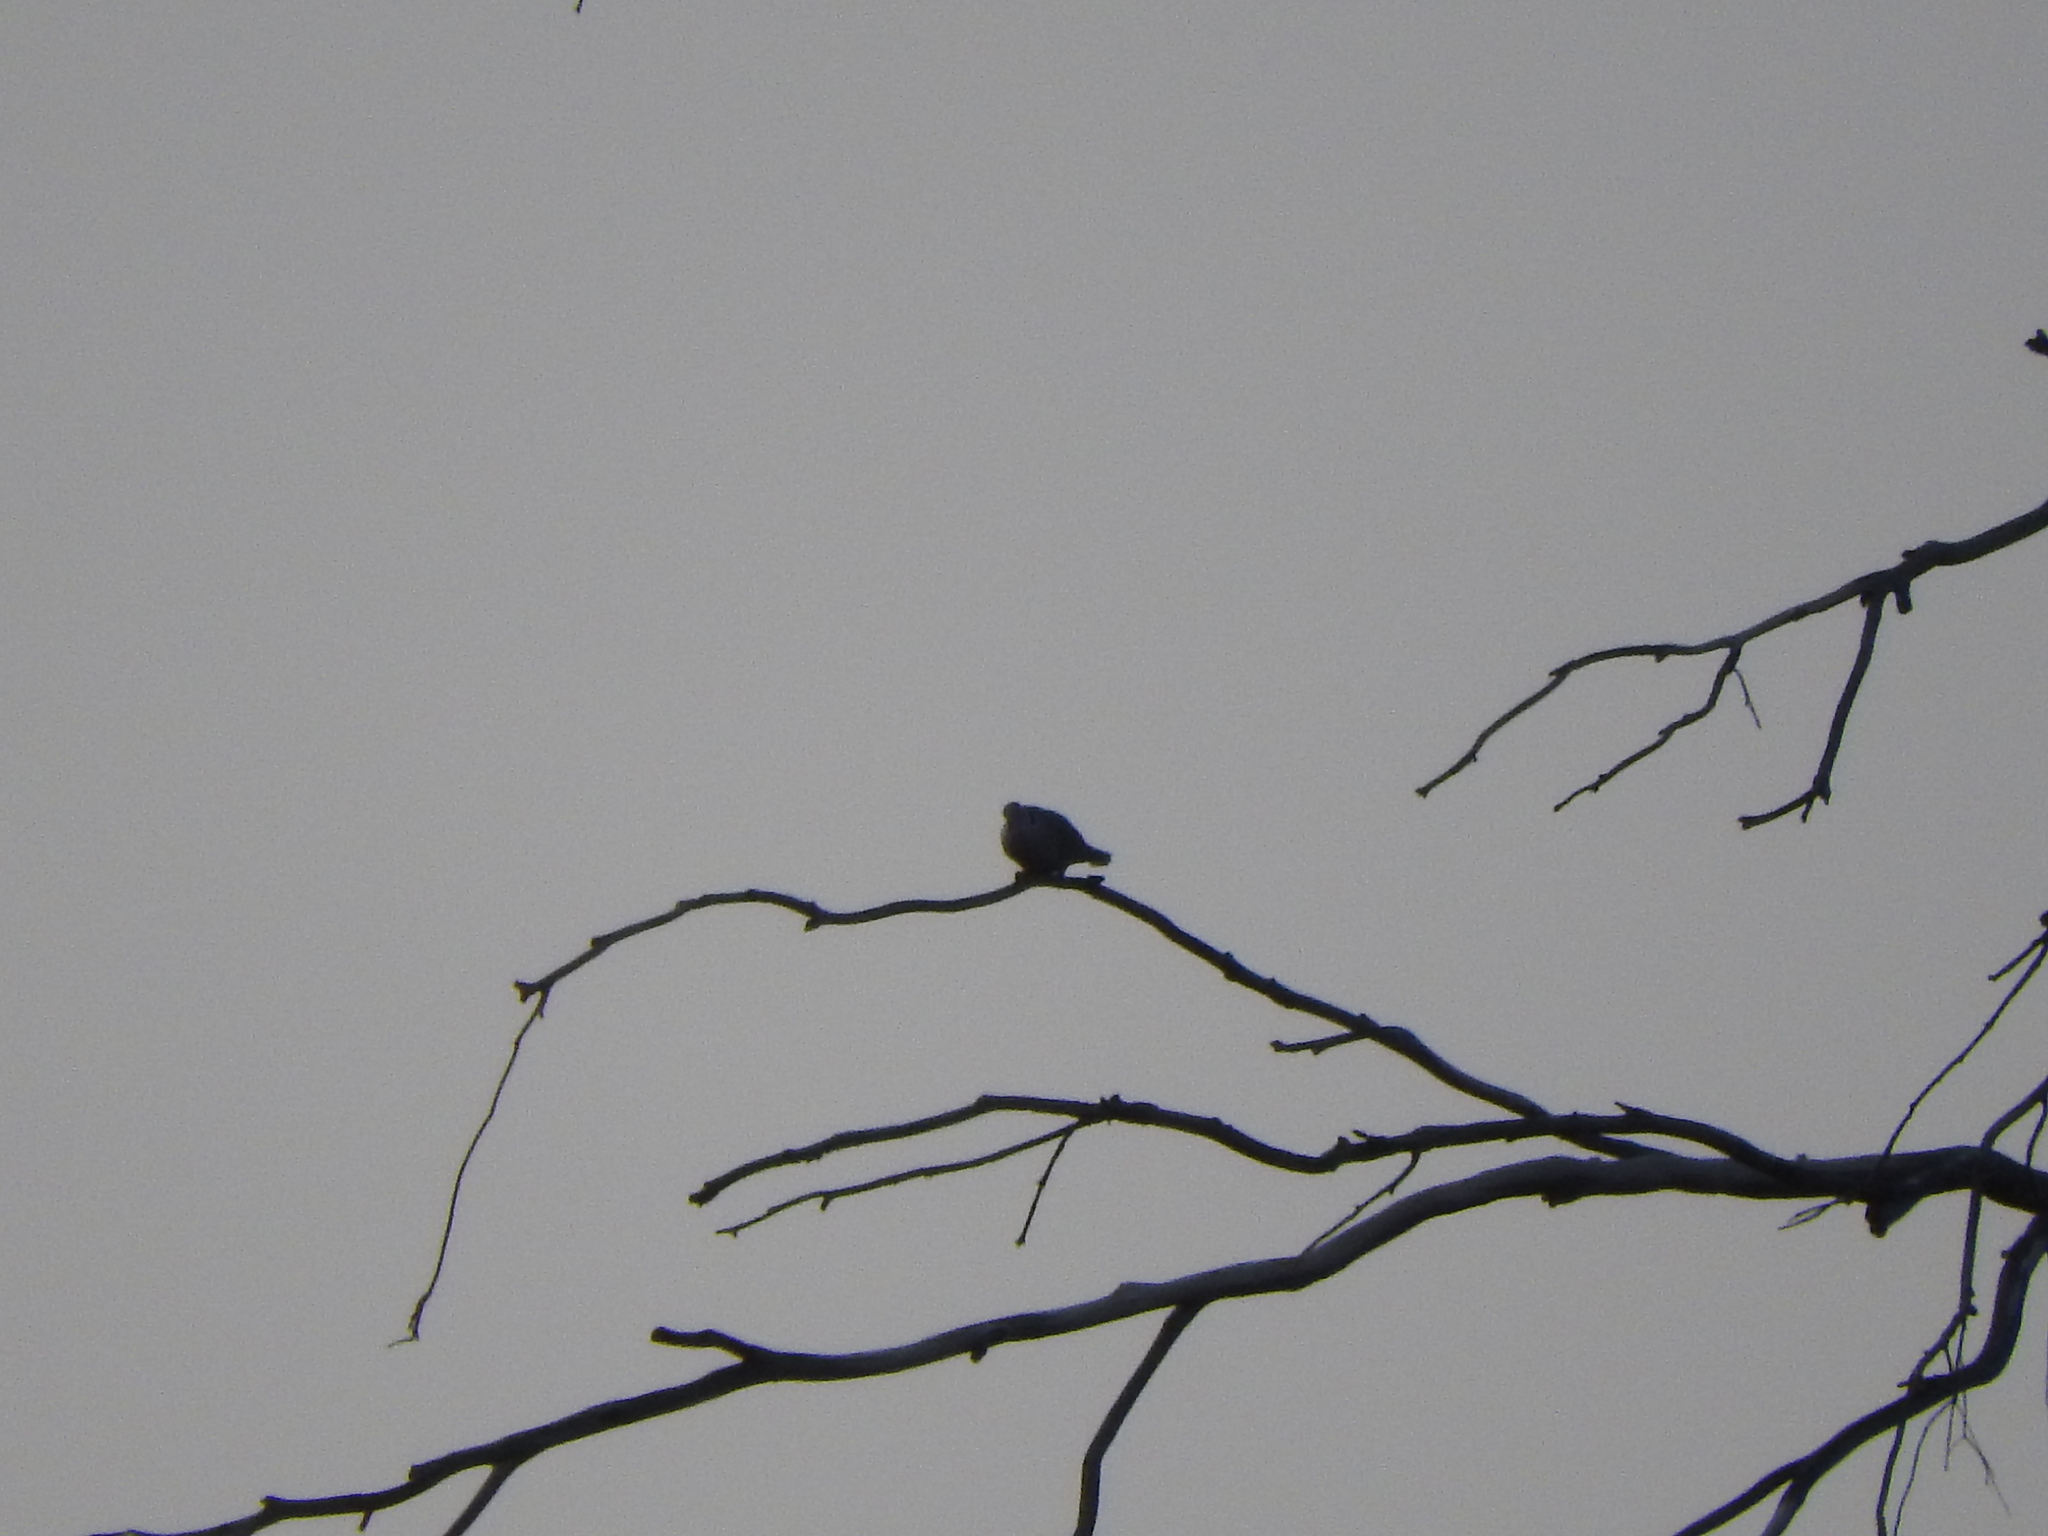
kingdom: Animalia
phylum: Chordata
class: Aves
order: Columbiformes
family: Columbidae
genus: Streptopelia
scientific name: Streptopelia decaocto
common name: Eurasian collared dove
